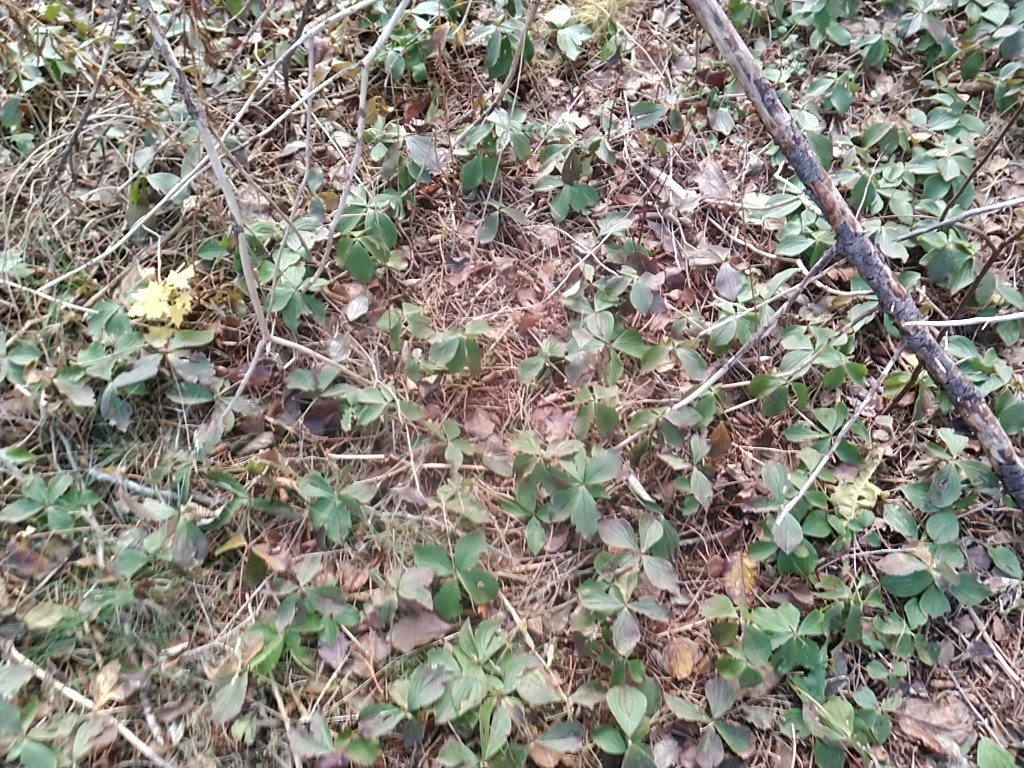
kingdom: Plantae
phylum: Tracheophyta
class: Magnoliopsida
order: Cornales
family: Cornaceae
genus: Cornus
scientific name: Cornus canadensis
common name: Creeping dogwood
